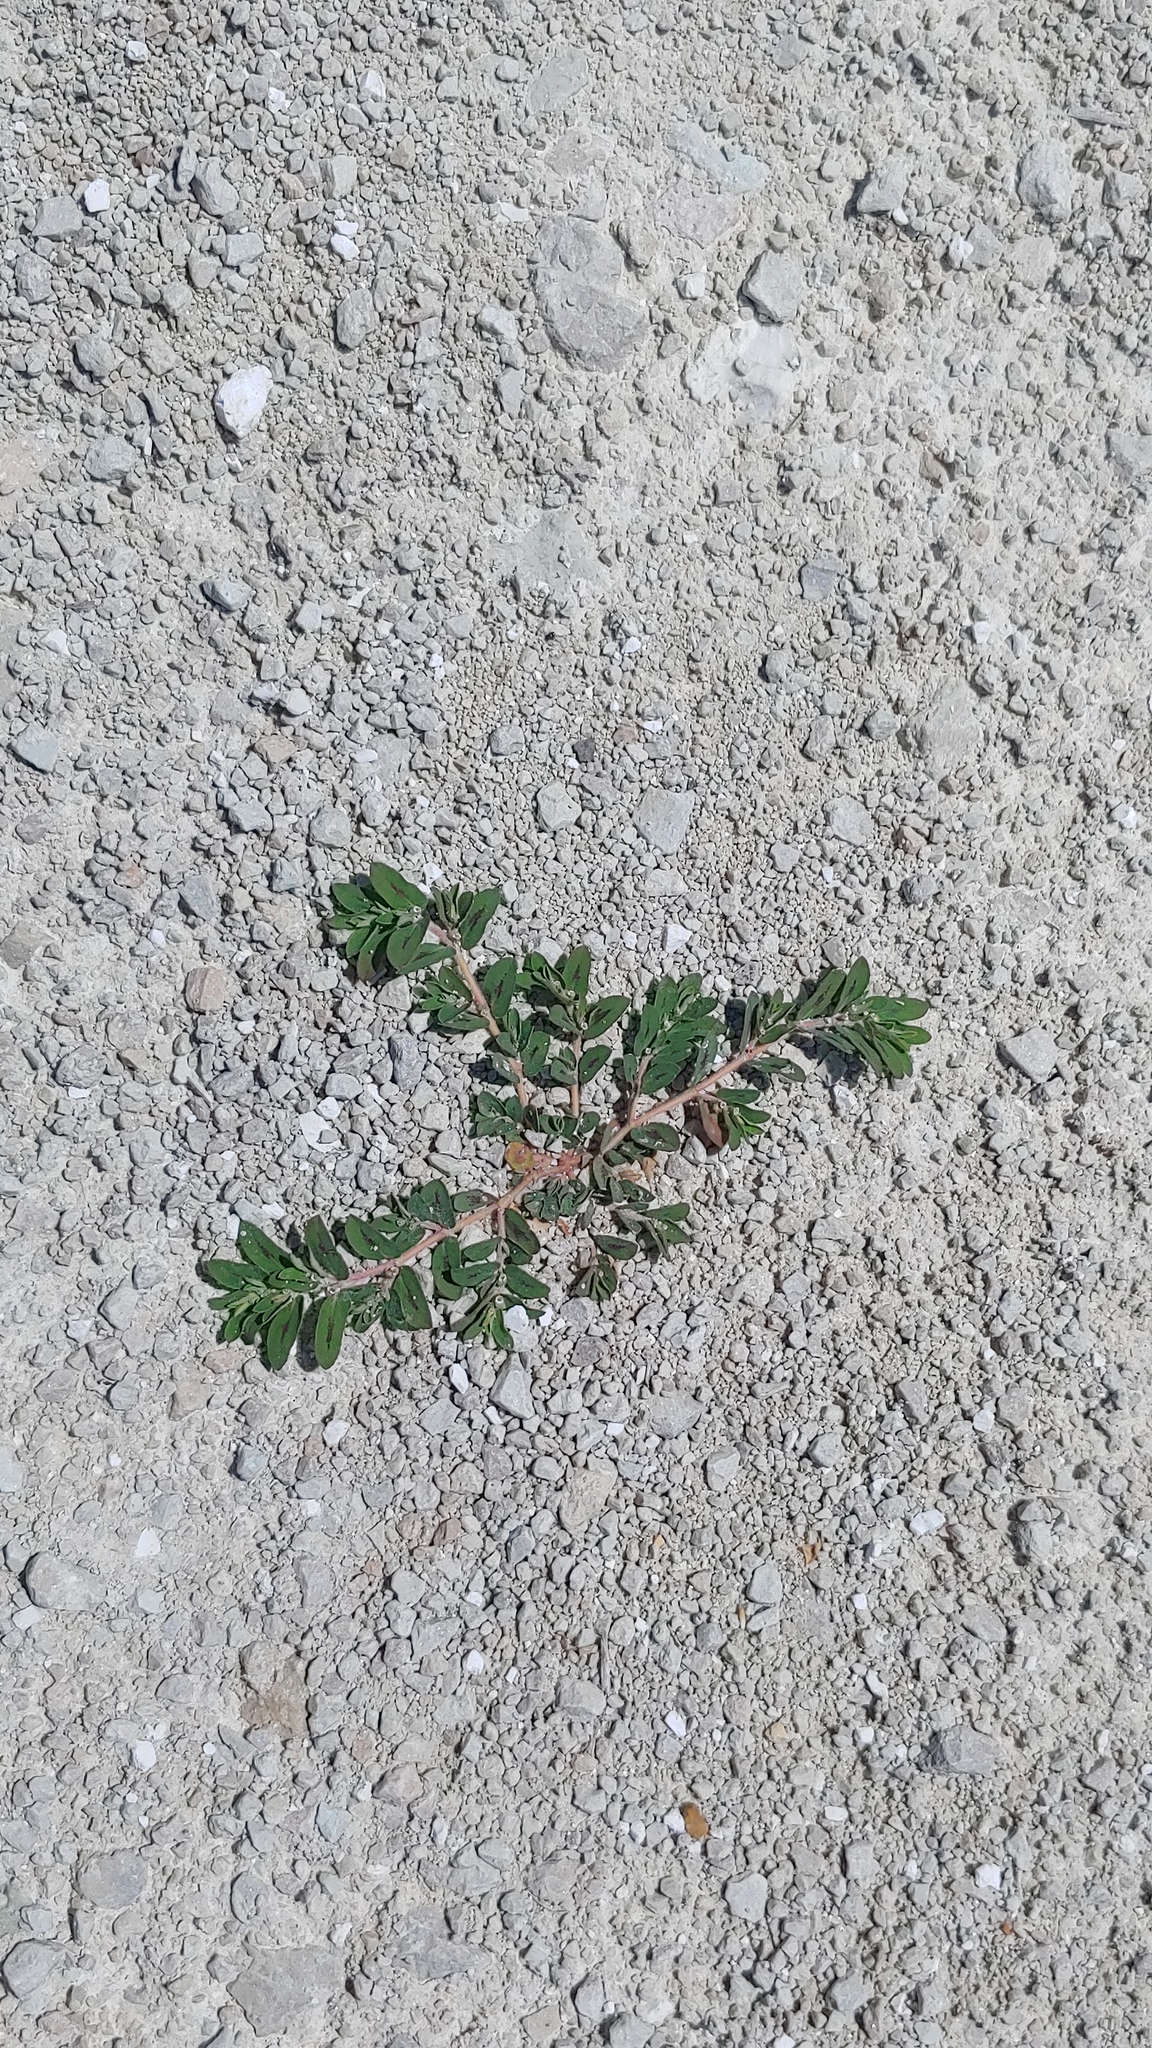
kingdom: Plantae
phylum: Tracheophyta
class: Magnoliopsida
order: Malpighiales
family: Euphorbiaceae
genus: Euphorbia
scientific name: Euphorbia maculata
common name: Spotted spurge
